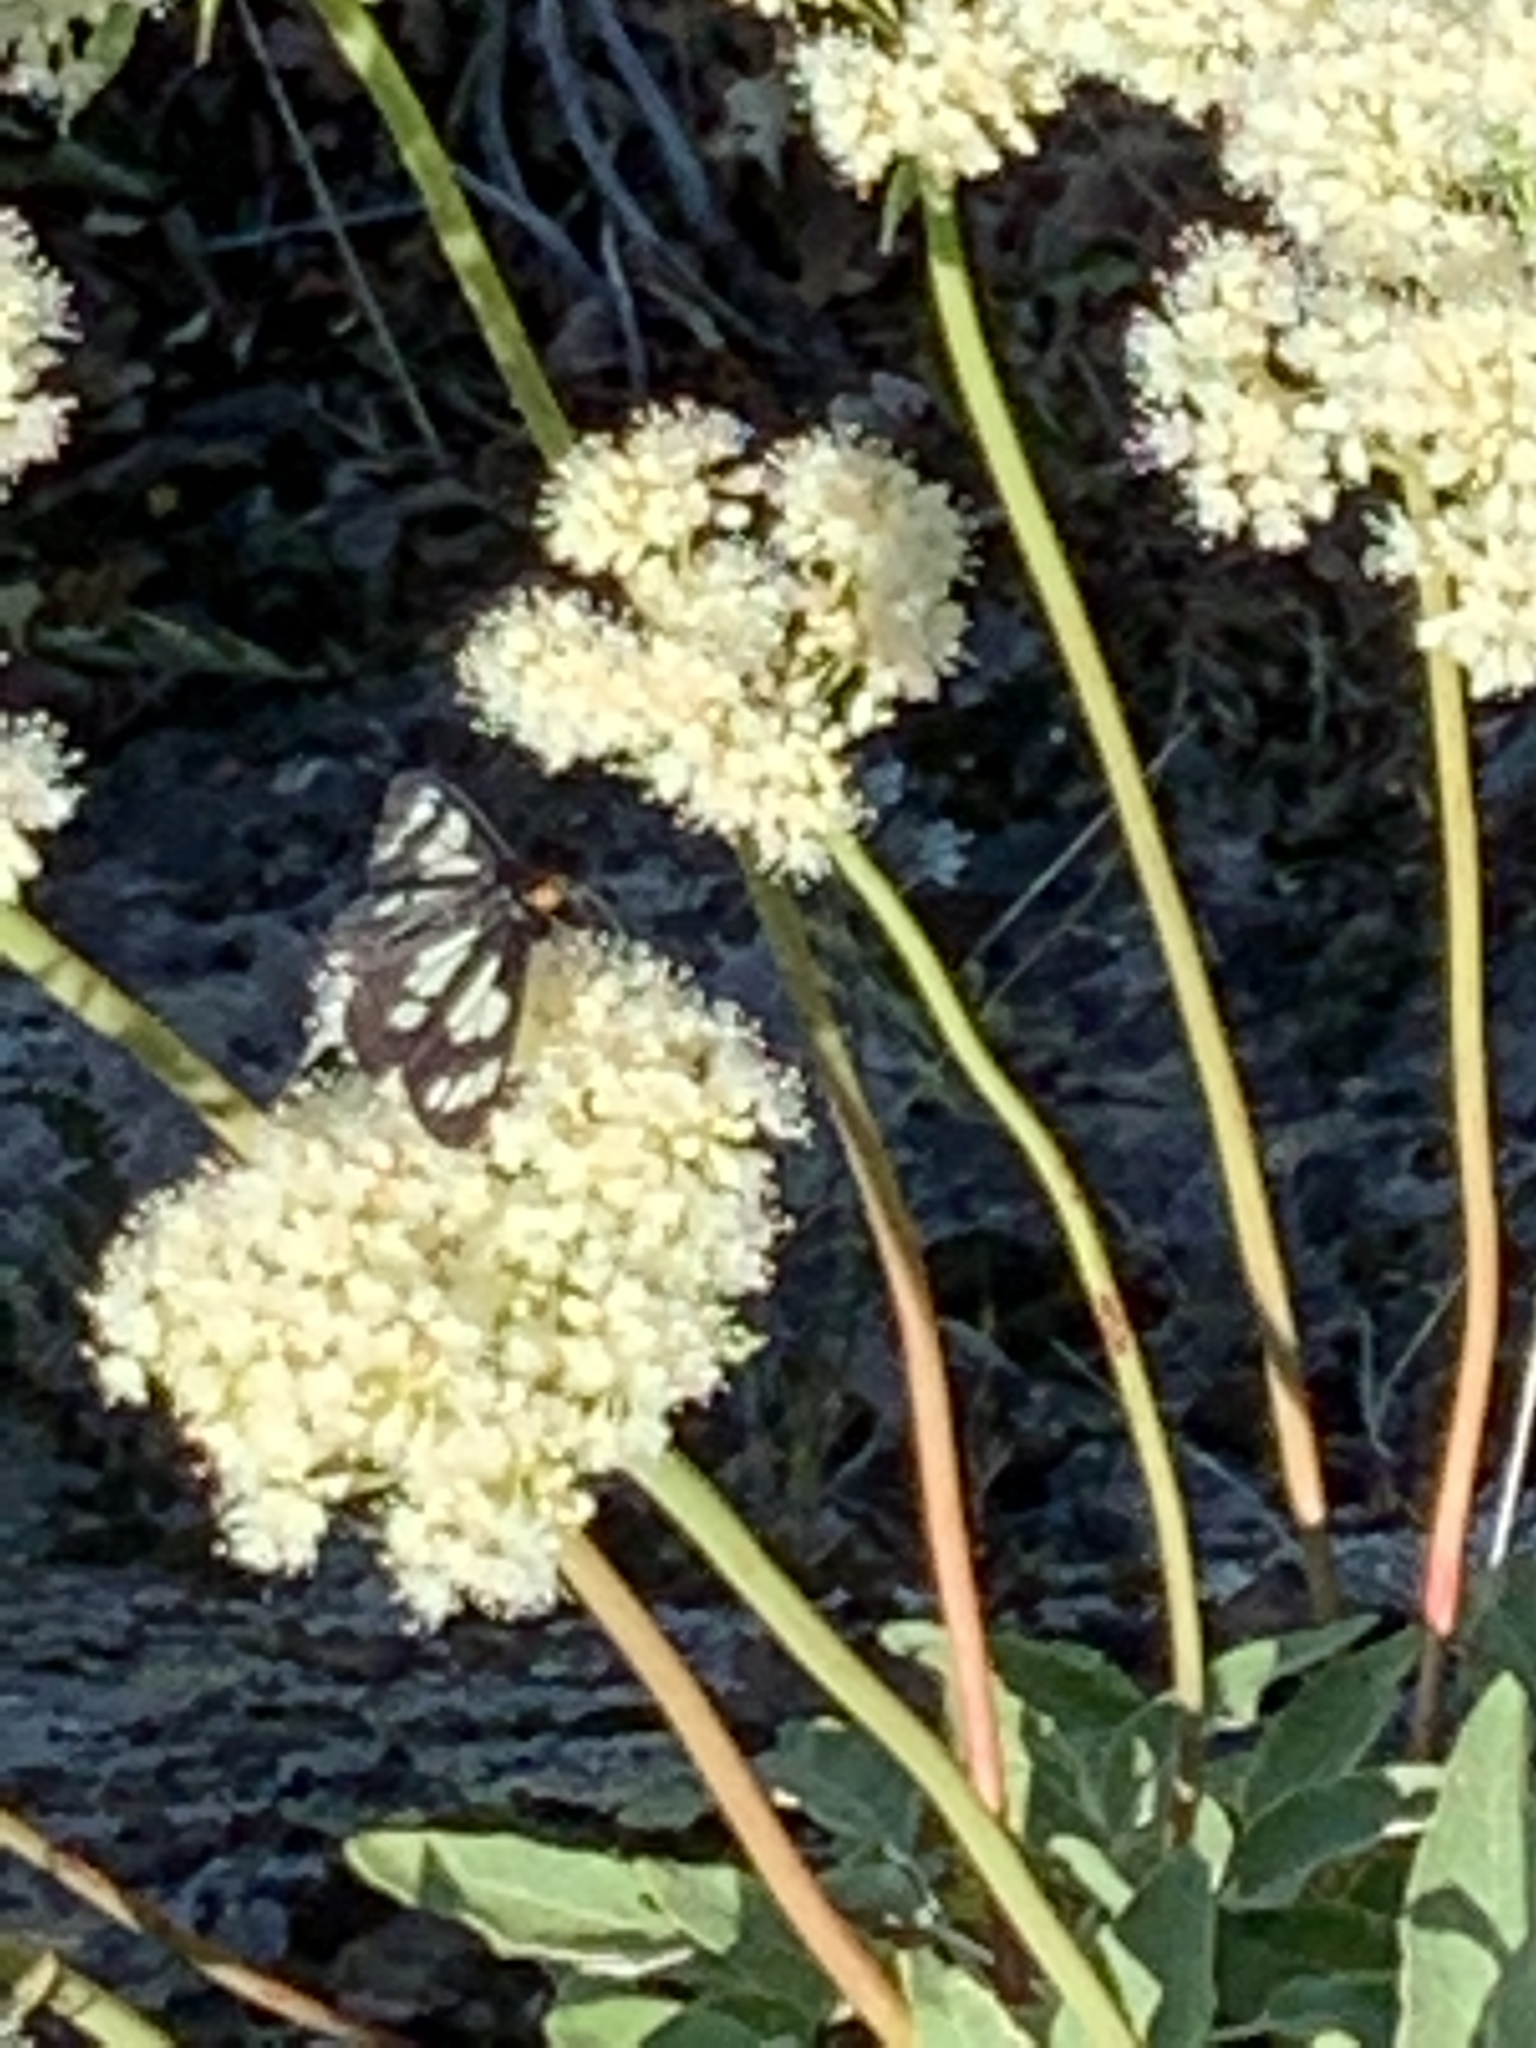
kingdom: Animalia
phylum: Arthropoda
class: Insecta
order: Lepidoptera
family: Erebidae
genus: Gnophaela
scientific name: Gnophaela latipennis
